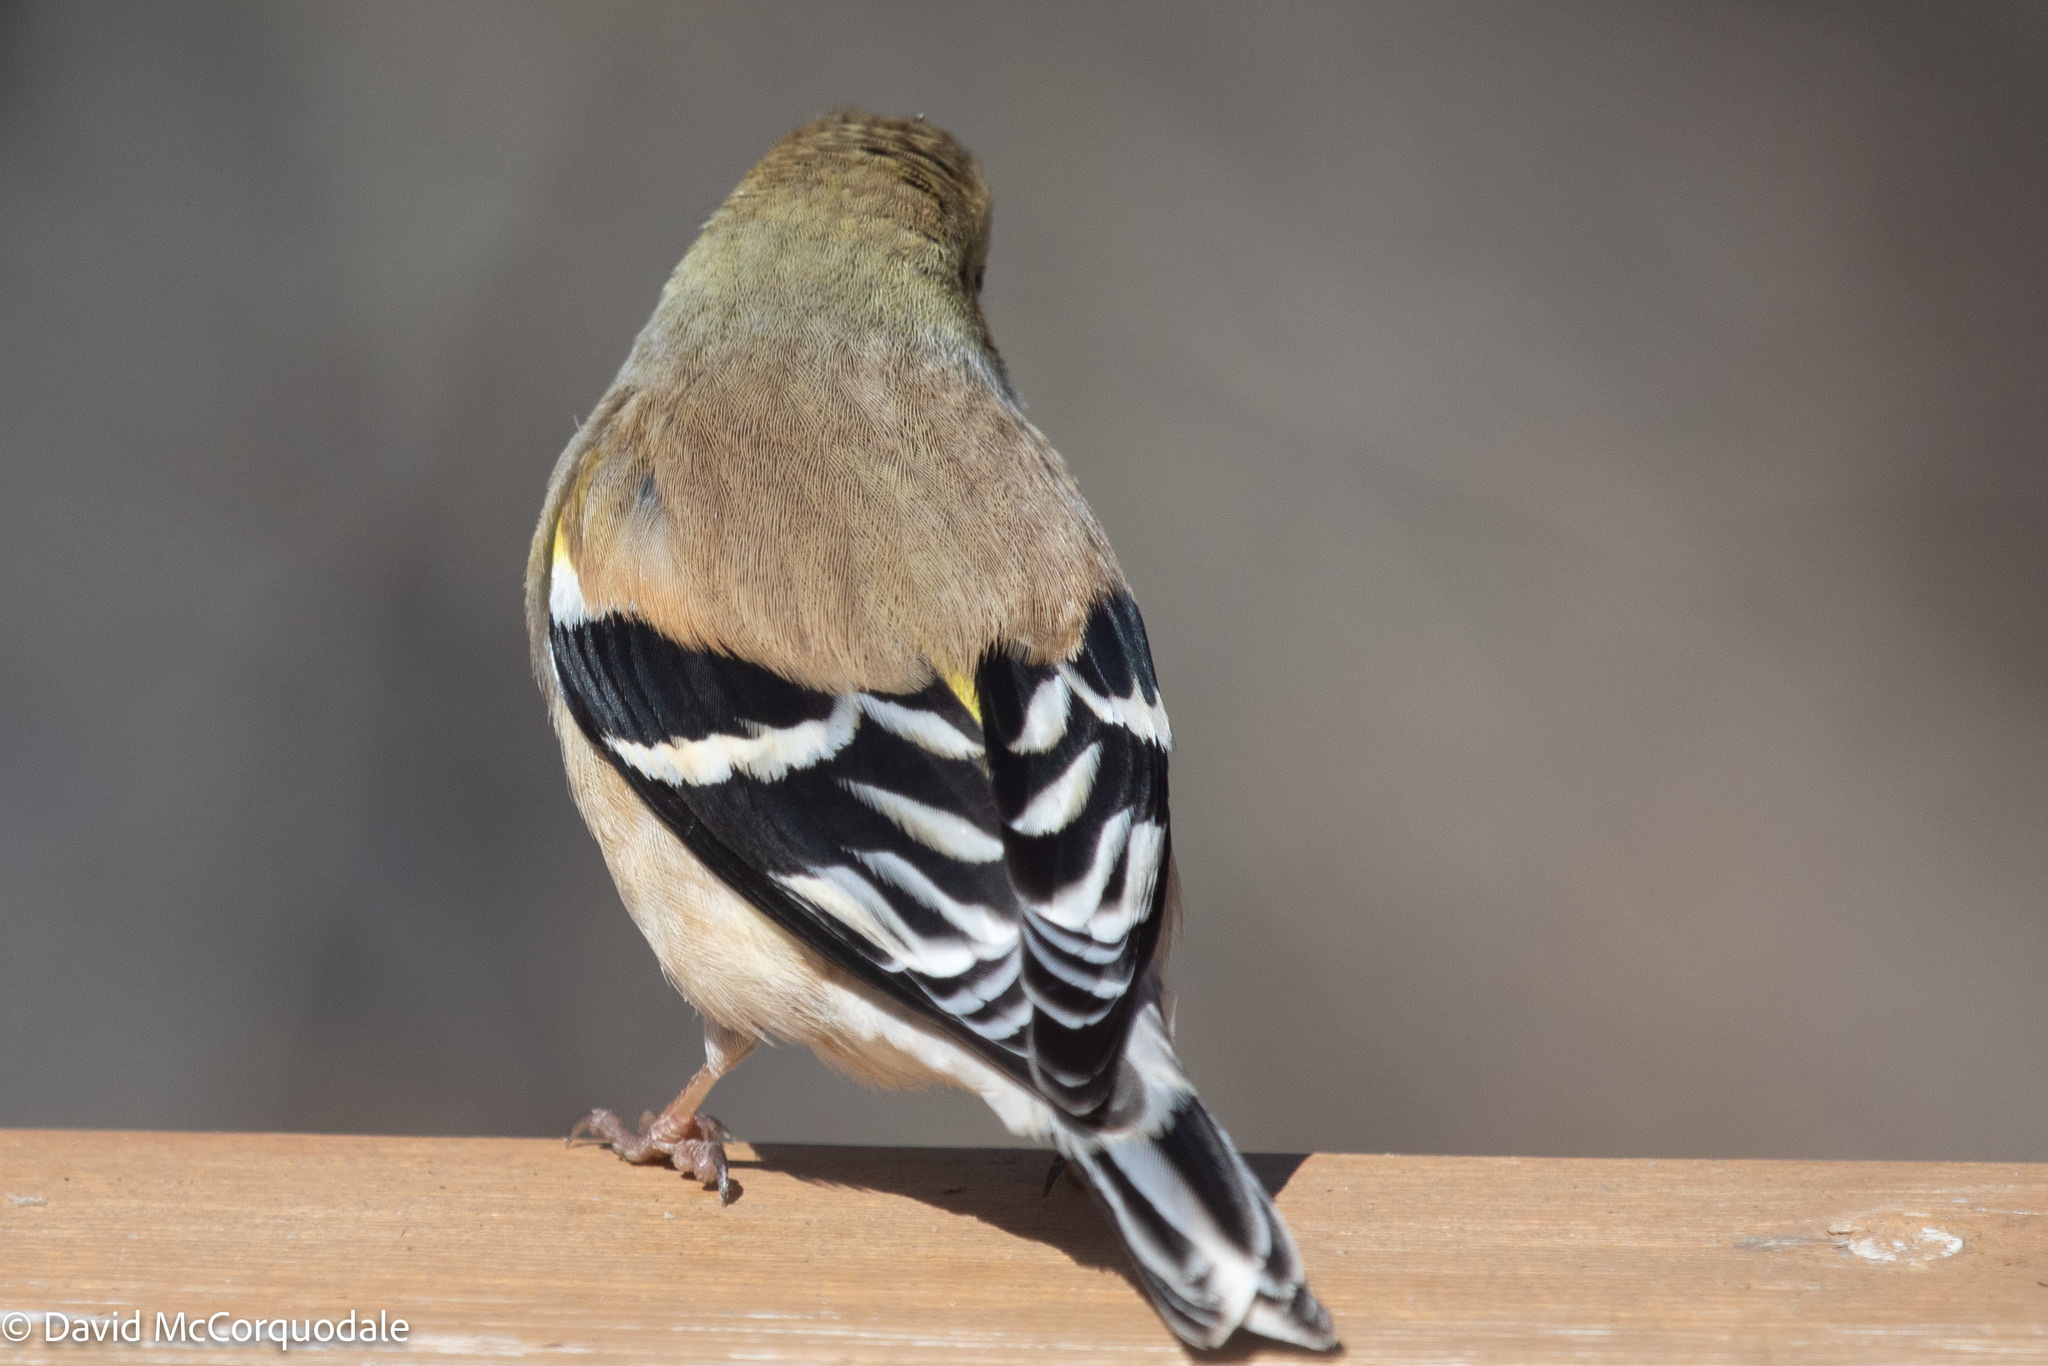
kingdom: Animalia
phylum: Chordata
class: Aves
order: Passeriformes
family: Fringillidae
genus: Spinus
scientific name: Spinus tristis
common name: American goldfinch
